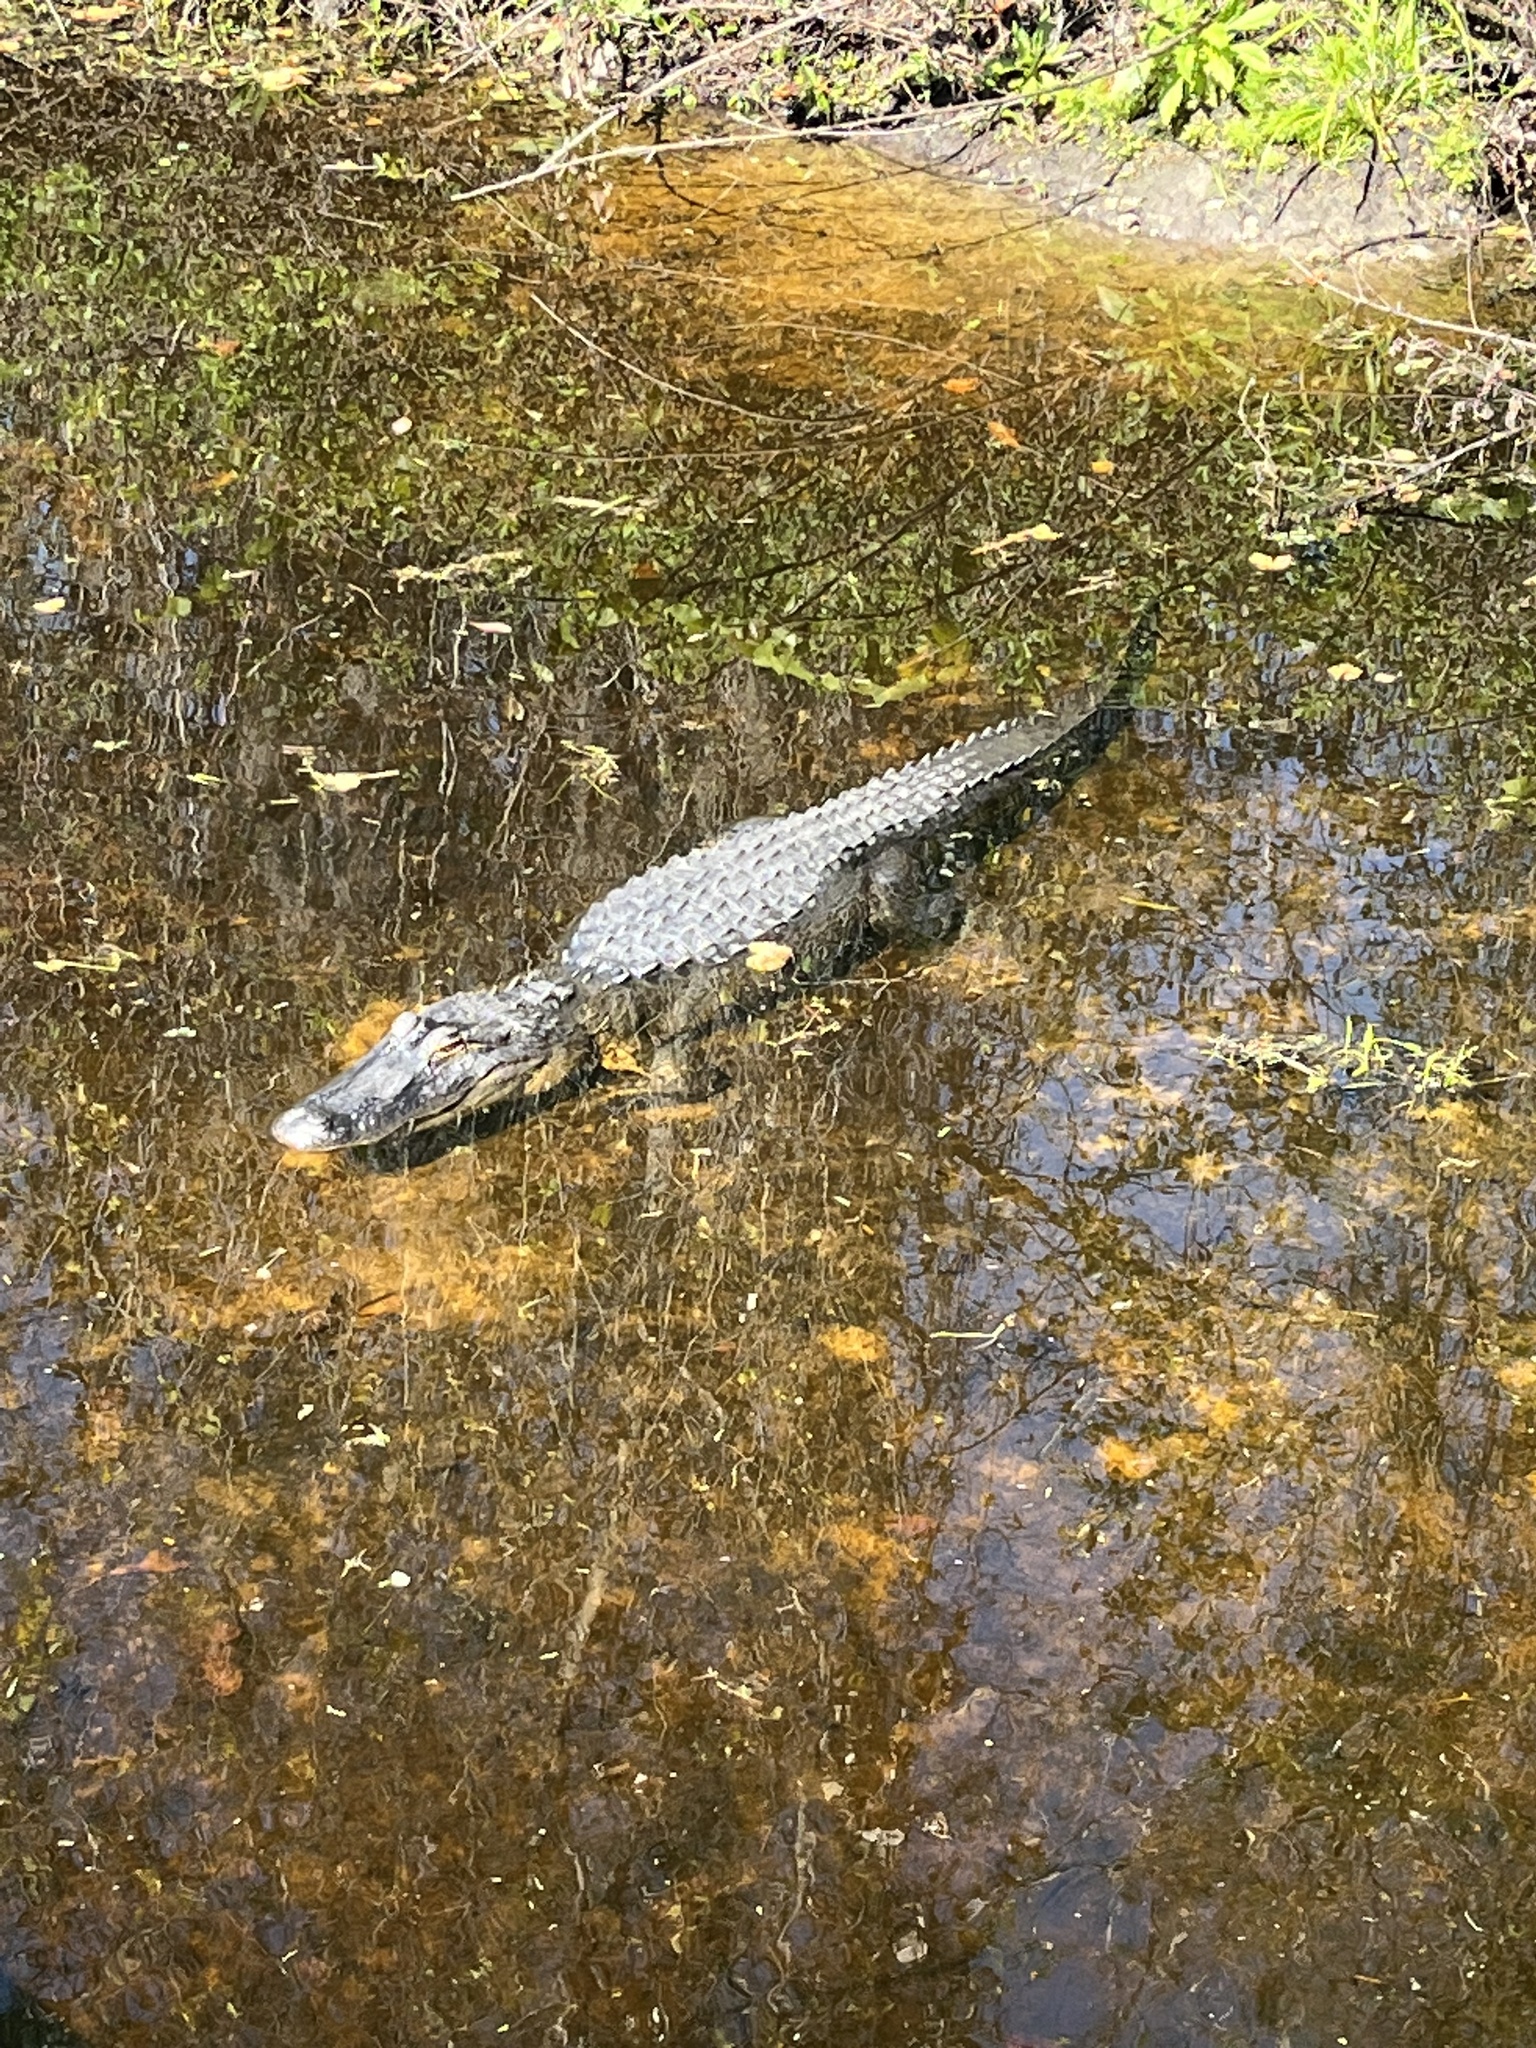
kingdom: Animalia
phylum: Chordata
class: Crocodylia
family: Alligatoridae
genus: Alligator
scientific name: Alligator mississippiensis
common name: American alligator
